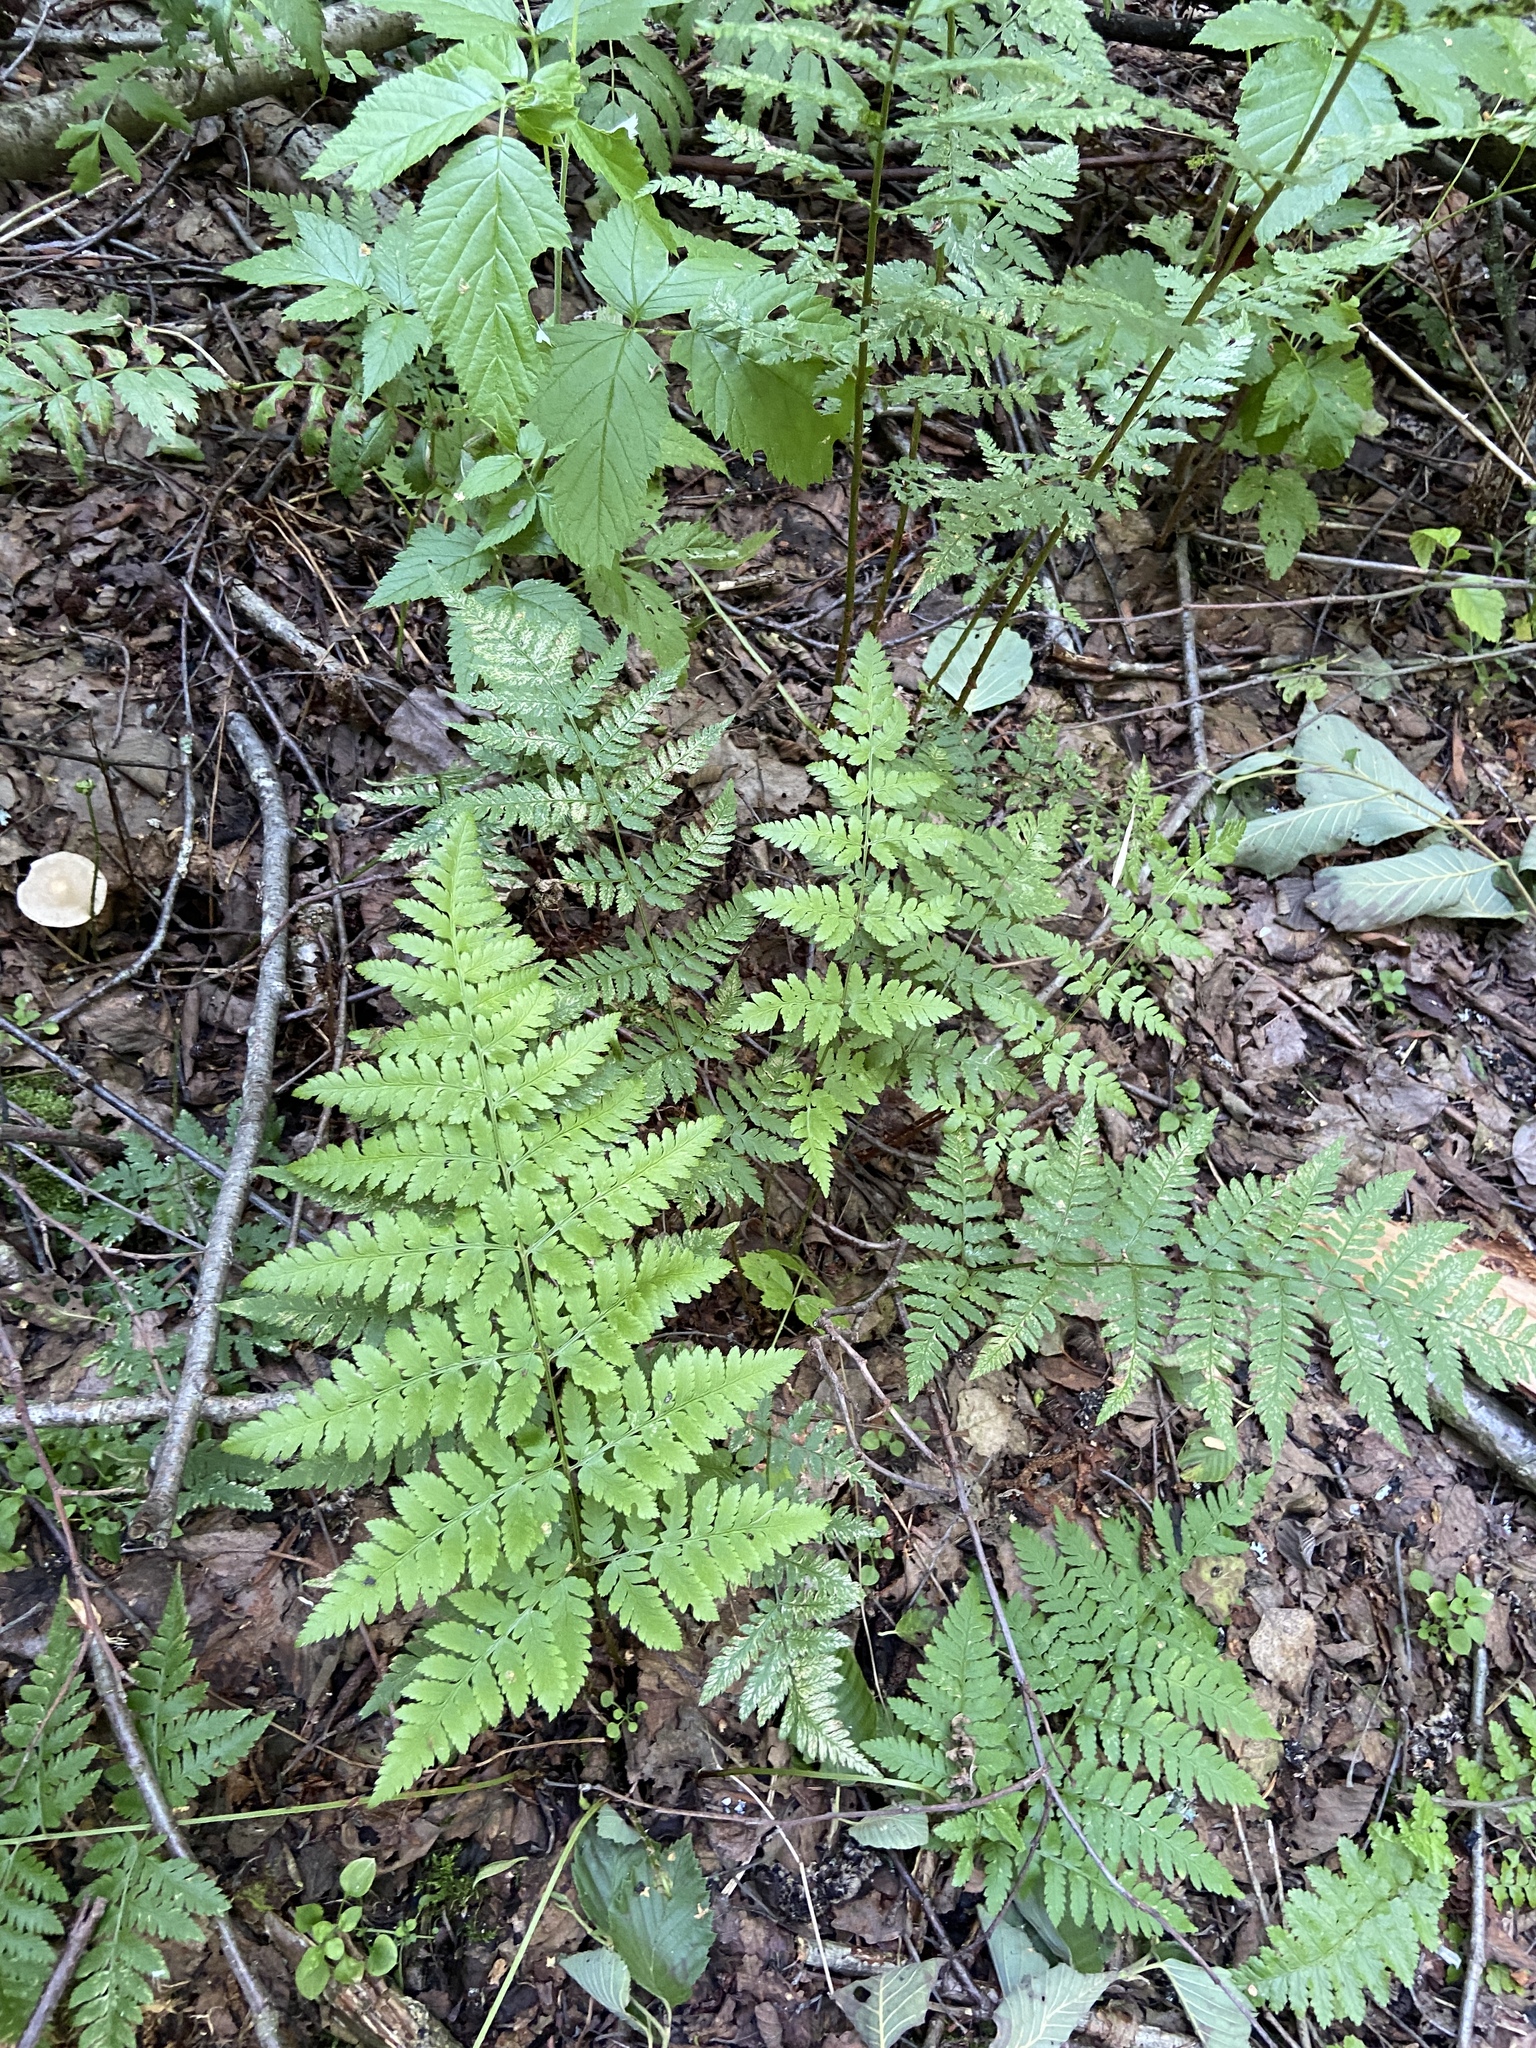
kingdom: Plantae
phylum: Tracheophyta
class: Polypodiopsida
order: Polypodiales
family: Dryopteridaceae
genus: Dryopteris
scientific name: Dryopteris carthusiana
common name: Narrow buckler-fern
